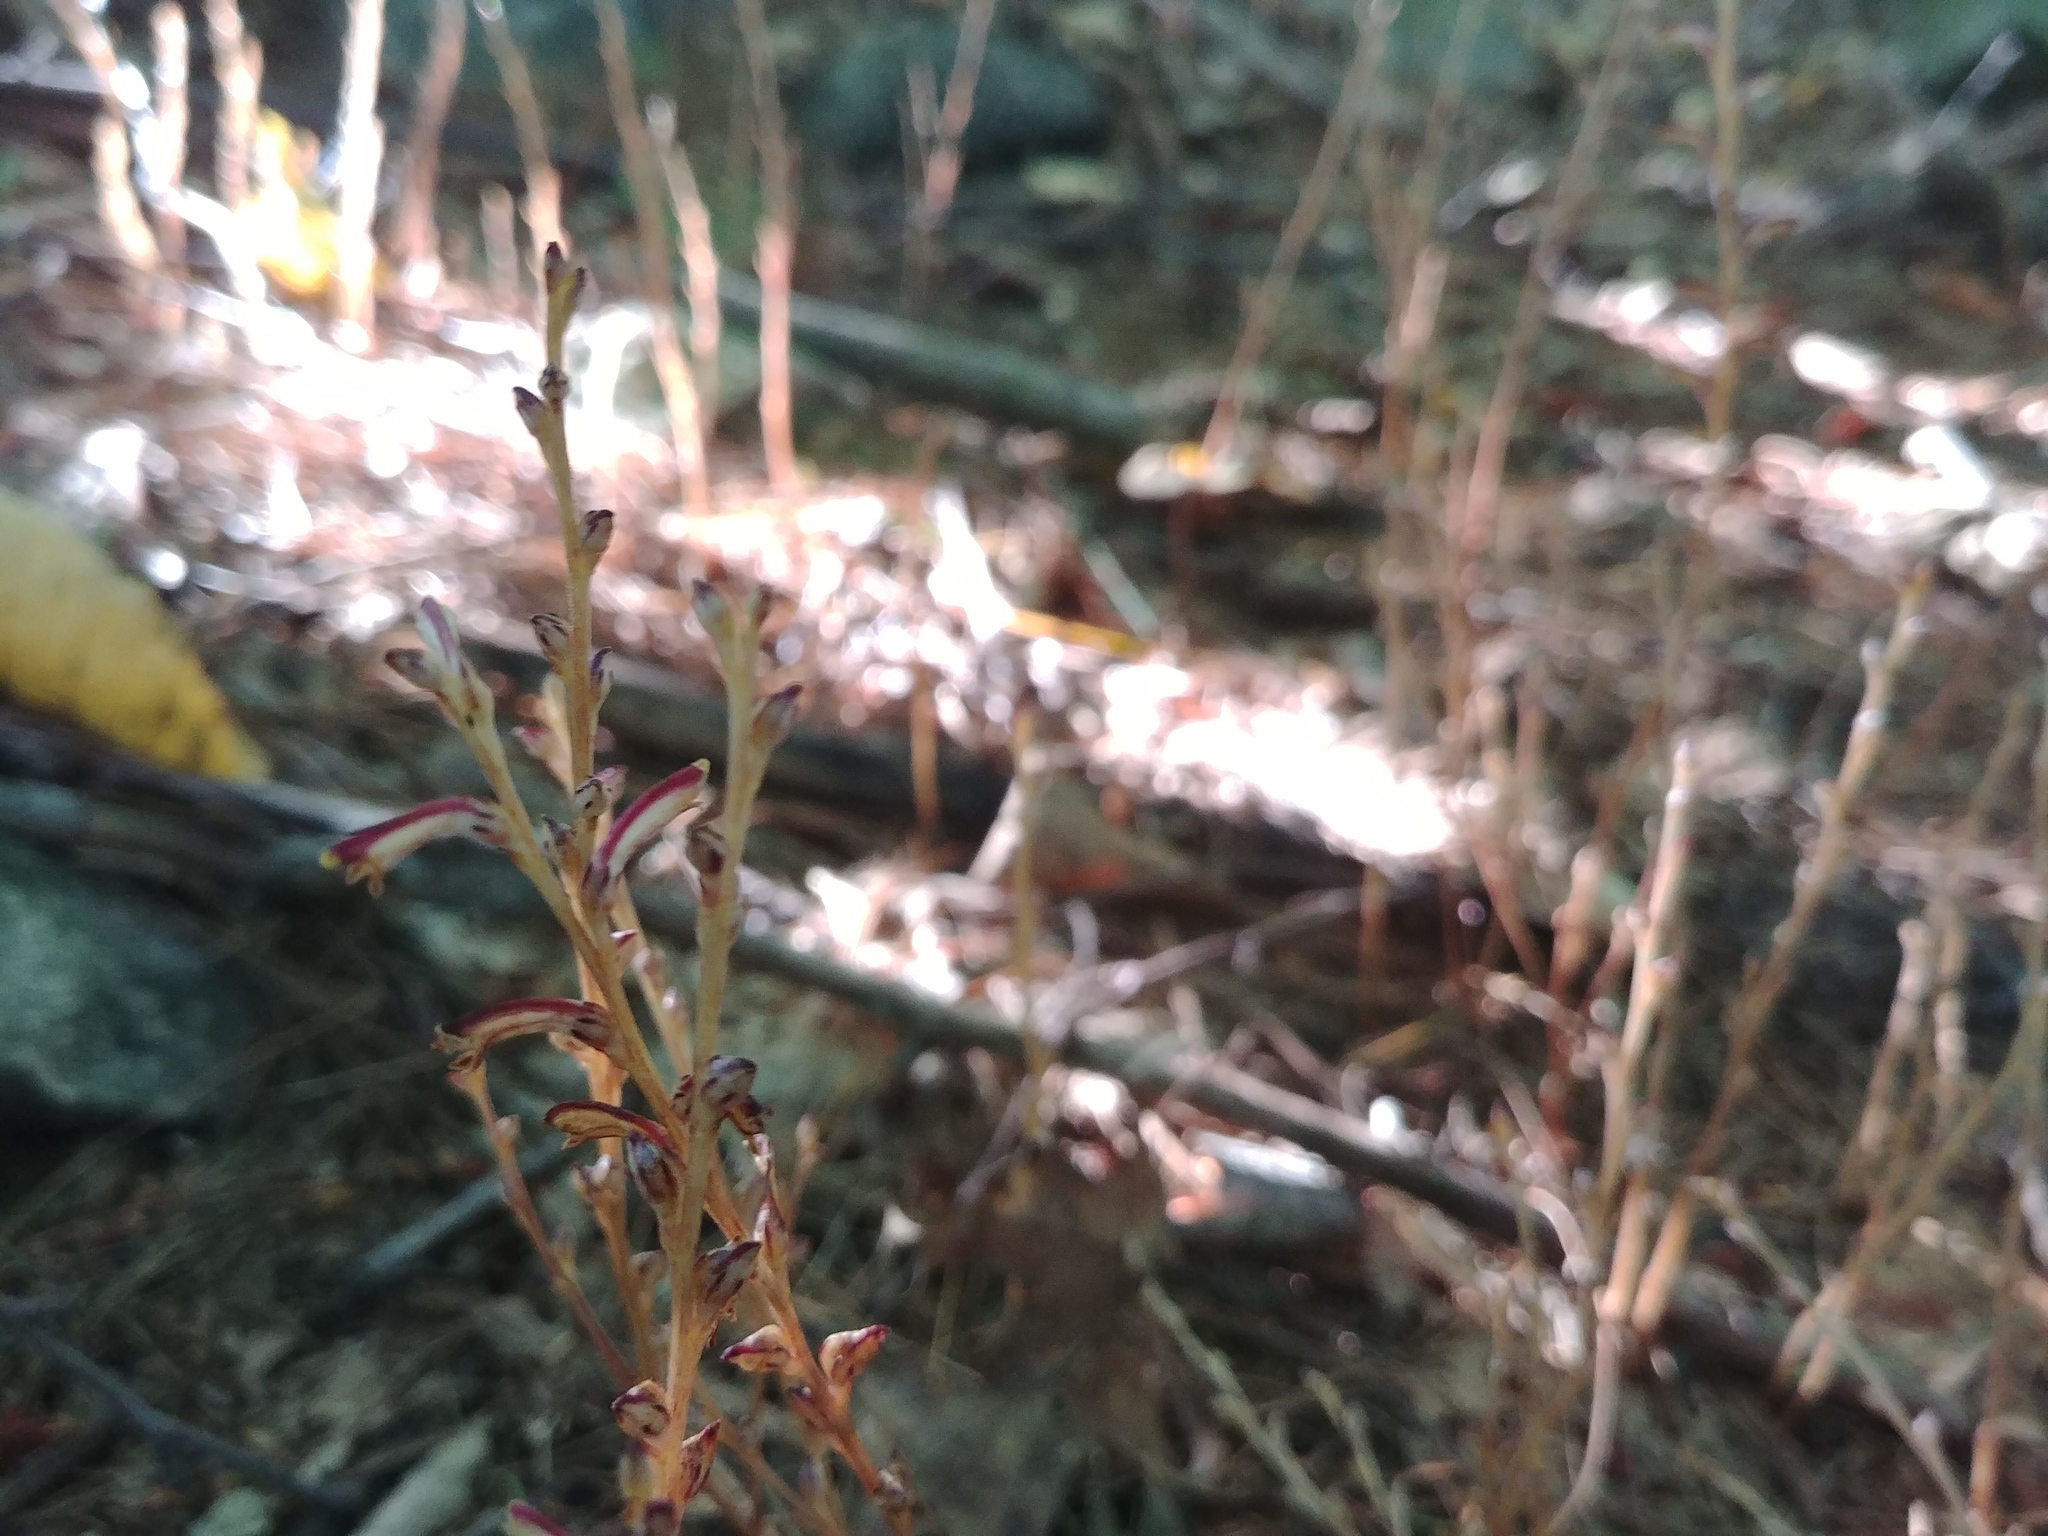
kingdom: Plantae
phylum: Tracheophyta
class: Magnoliopsida
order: Lamiales
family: Orobanchaceae
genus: Epifagus
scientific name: Epifagus virginiana
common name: Beechdrops
